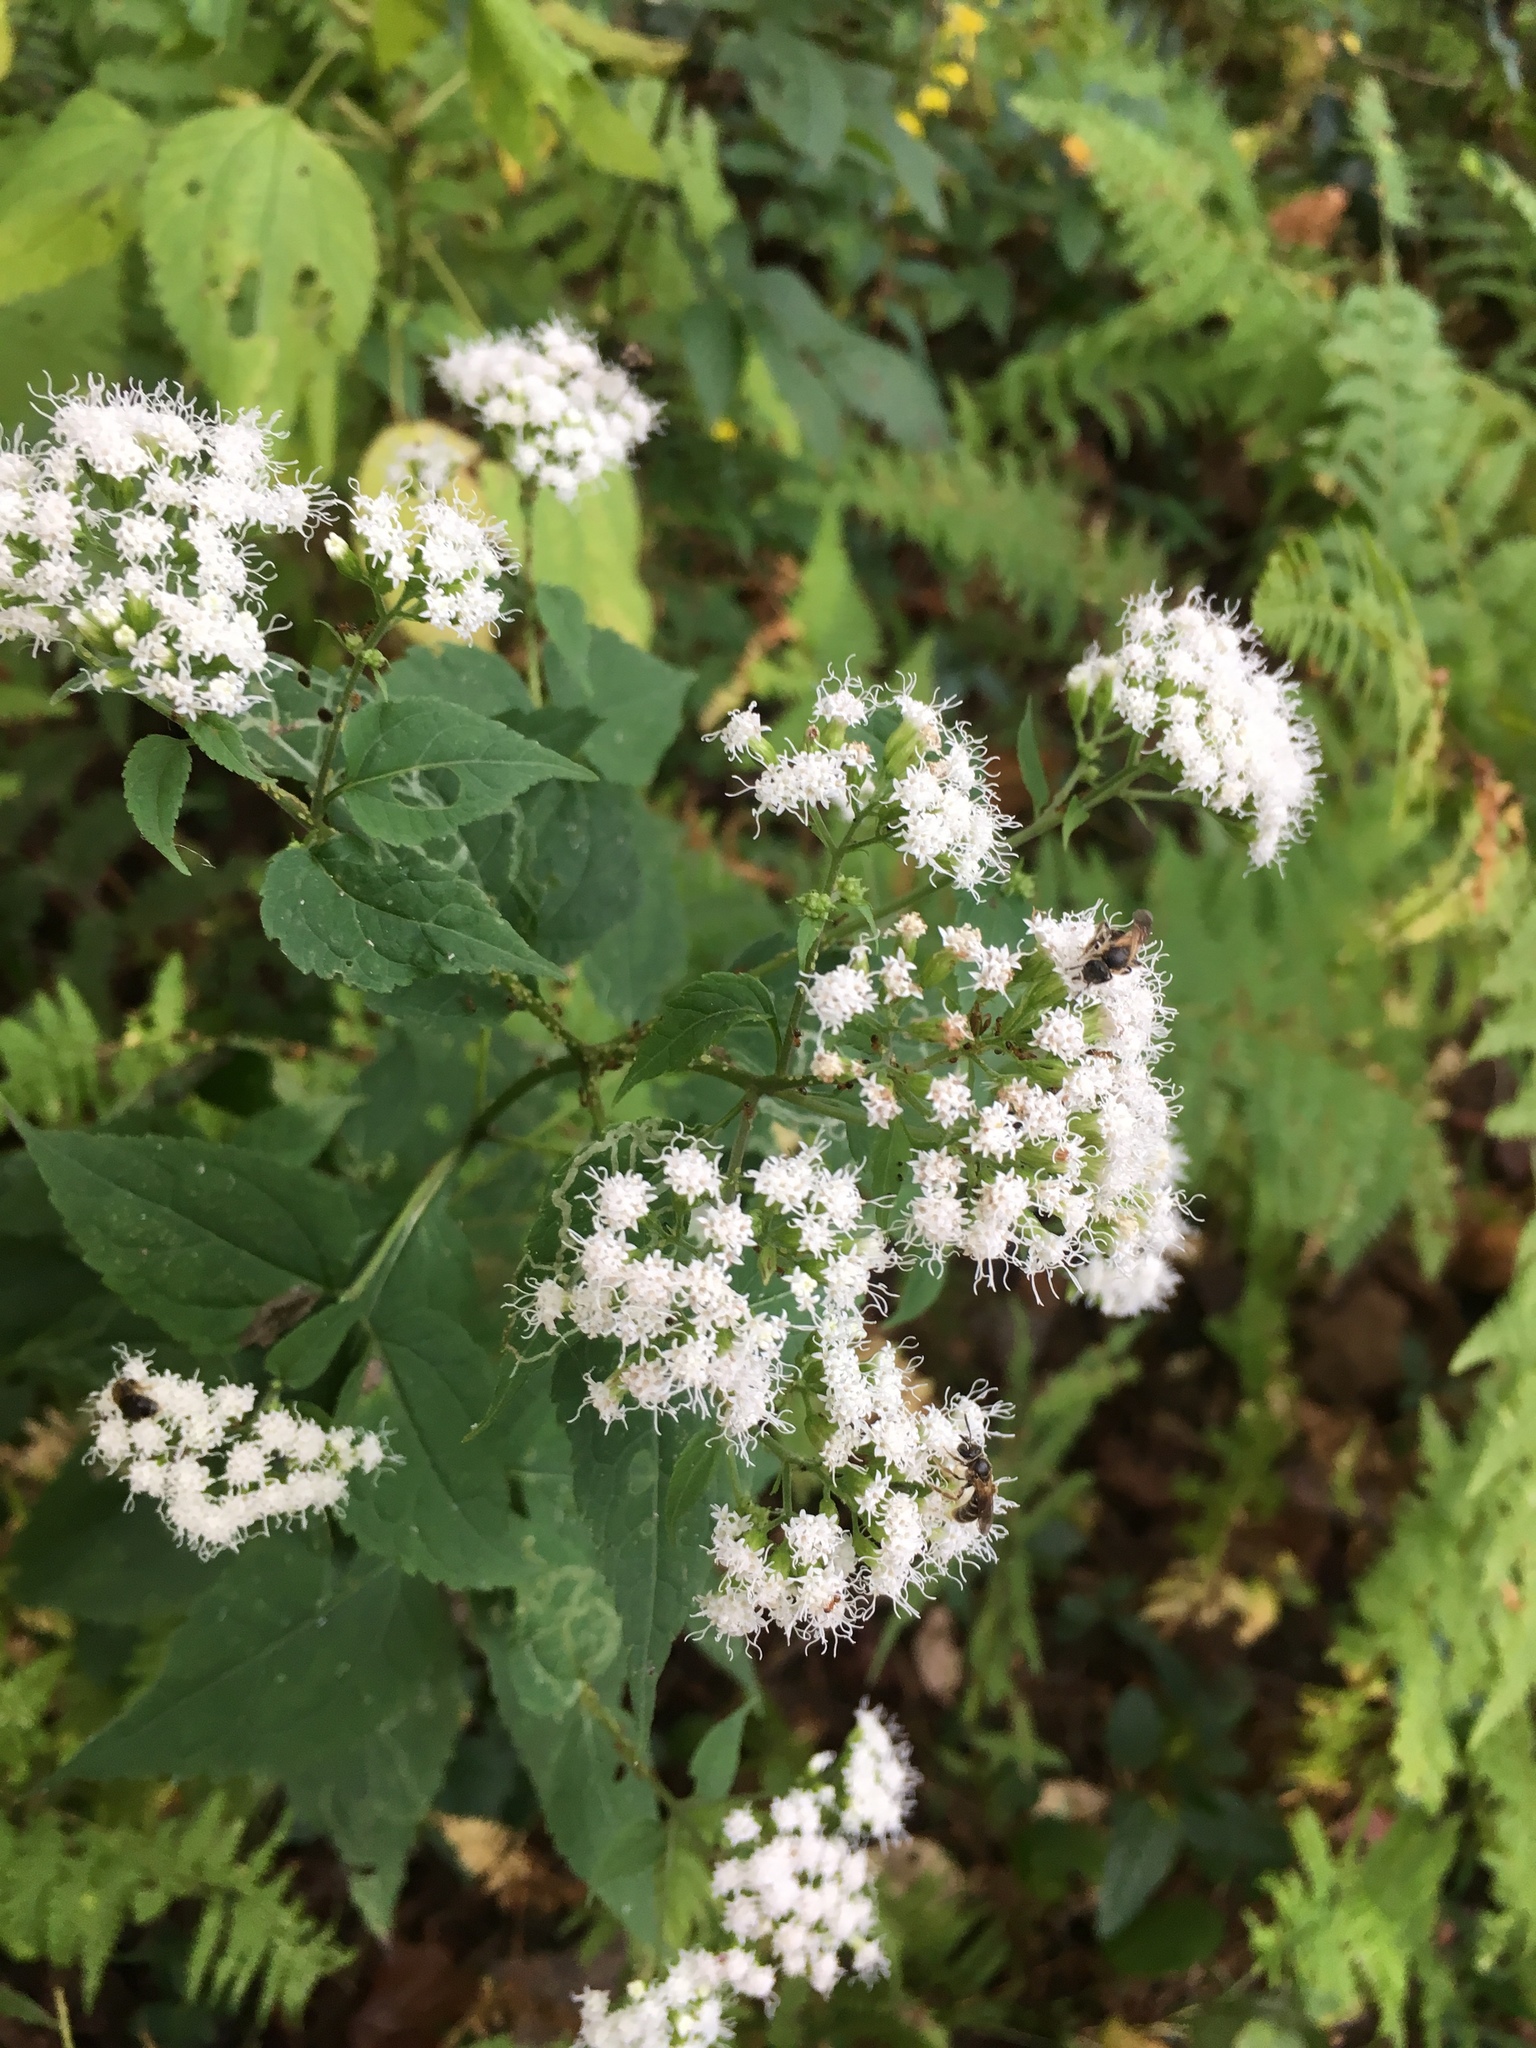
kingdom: Plantae
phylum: Tracheophyta
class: Magnoliopsida
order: Asterales
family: Asteraceae
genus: Ageratina
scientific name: Ageratina altissima
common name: White snakeroot
